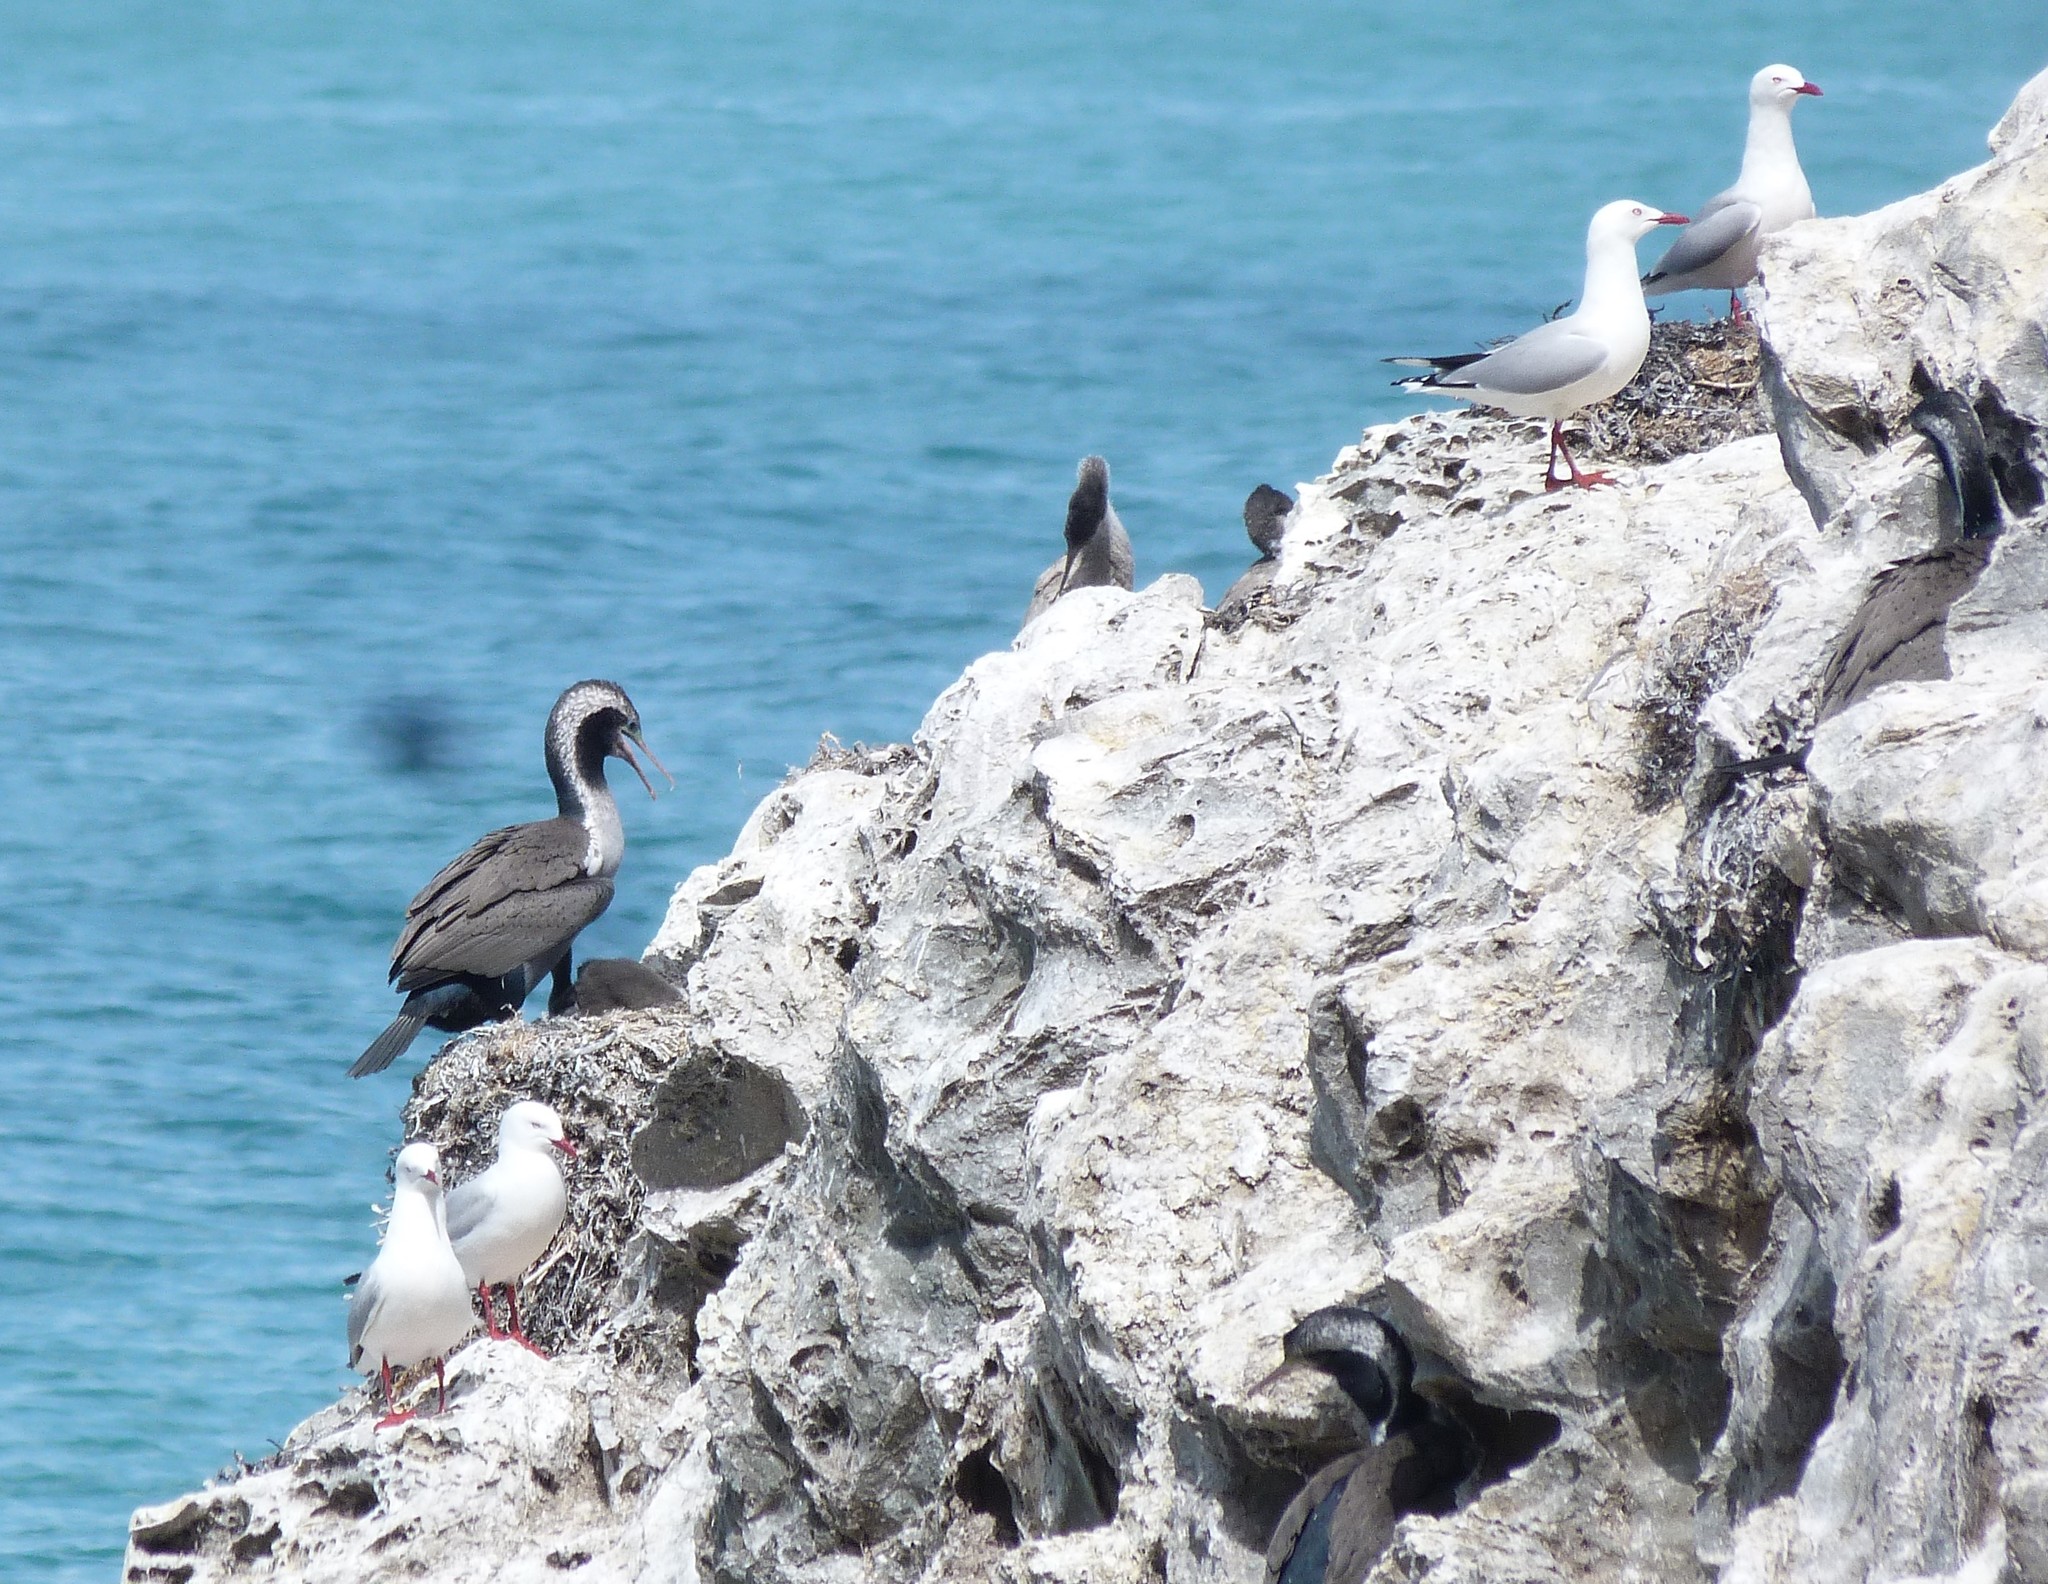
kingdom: Animalia
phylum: Chordata
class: Aves
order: Suliformes
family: Phalacrocoracidae
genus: Phalacrocorax
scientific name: Phalacrocorax punctatus
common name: Spotted shag
